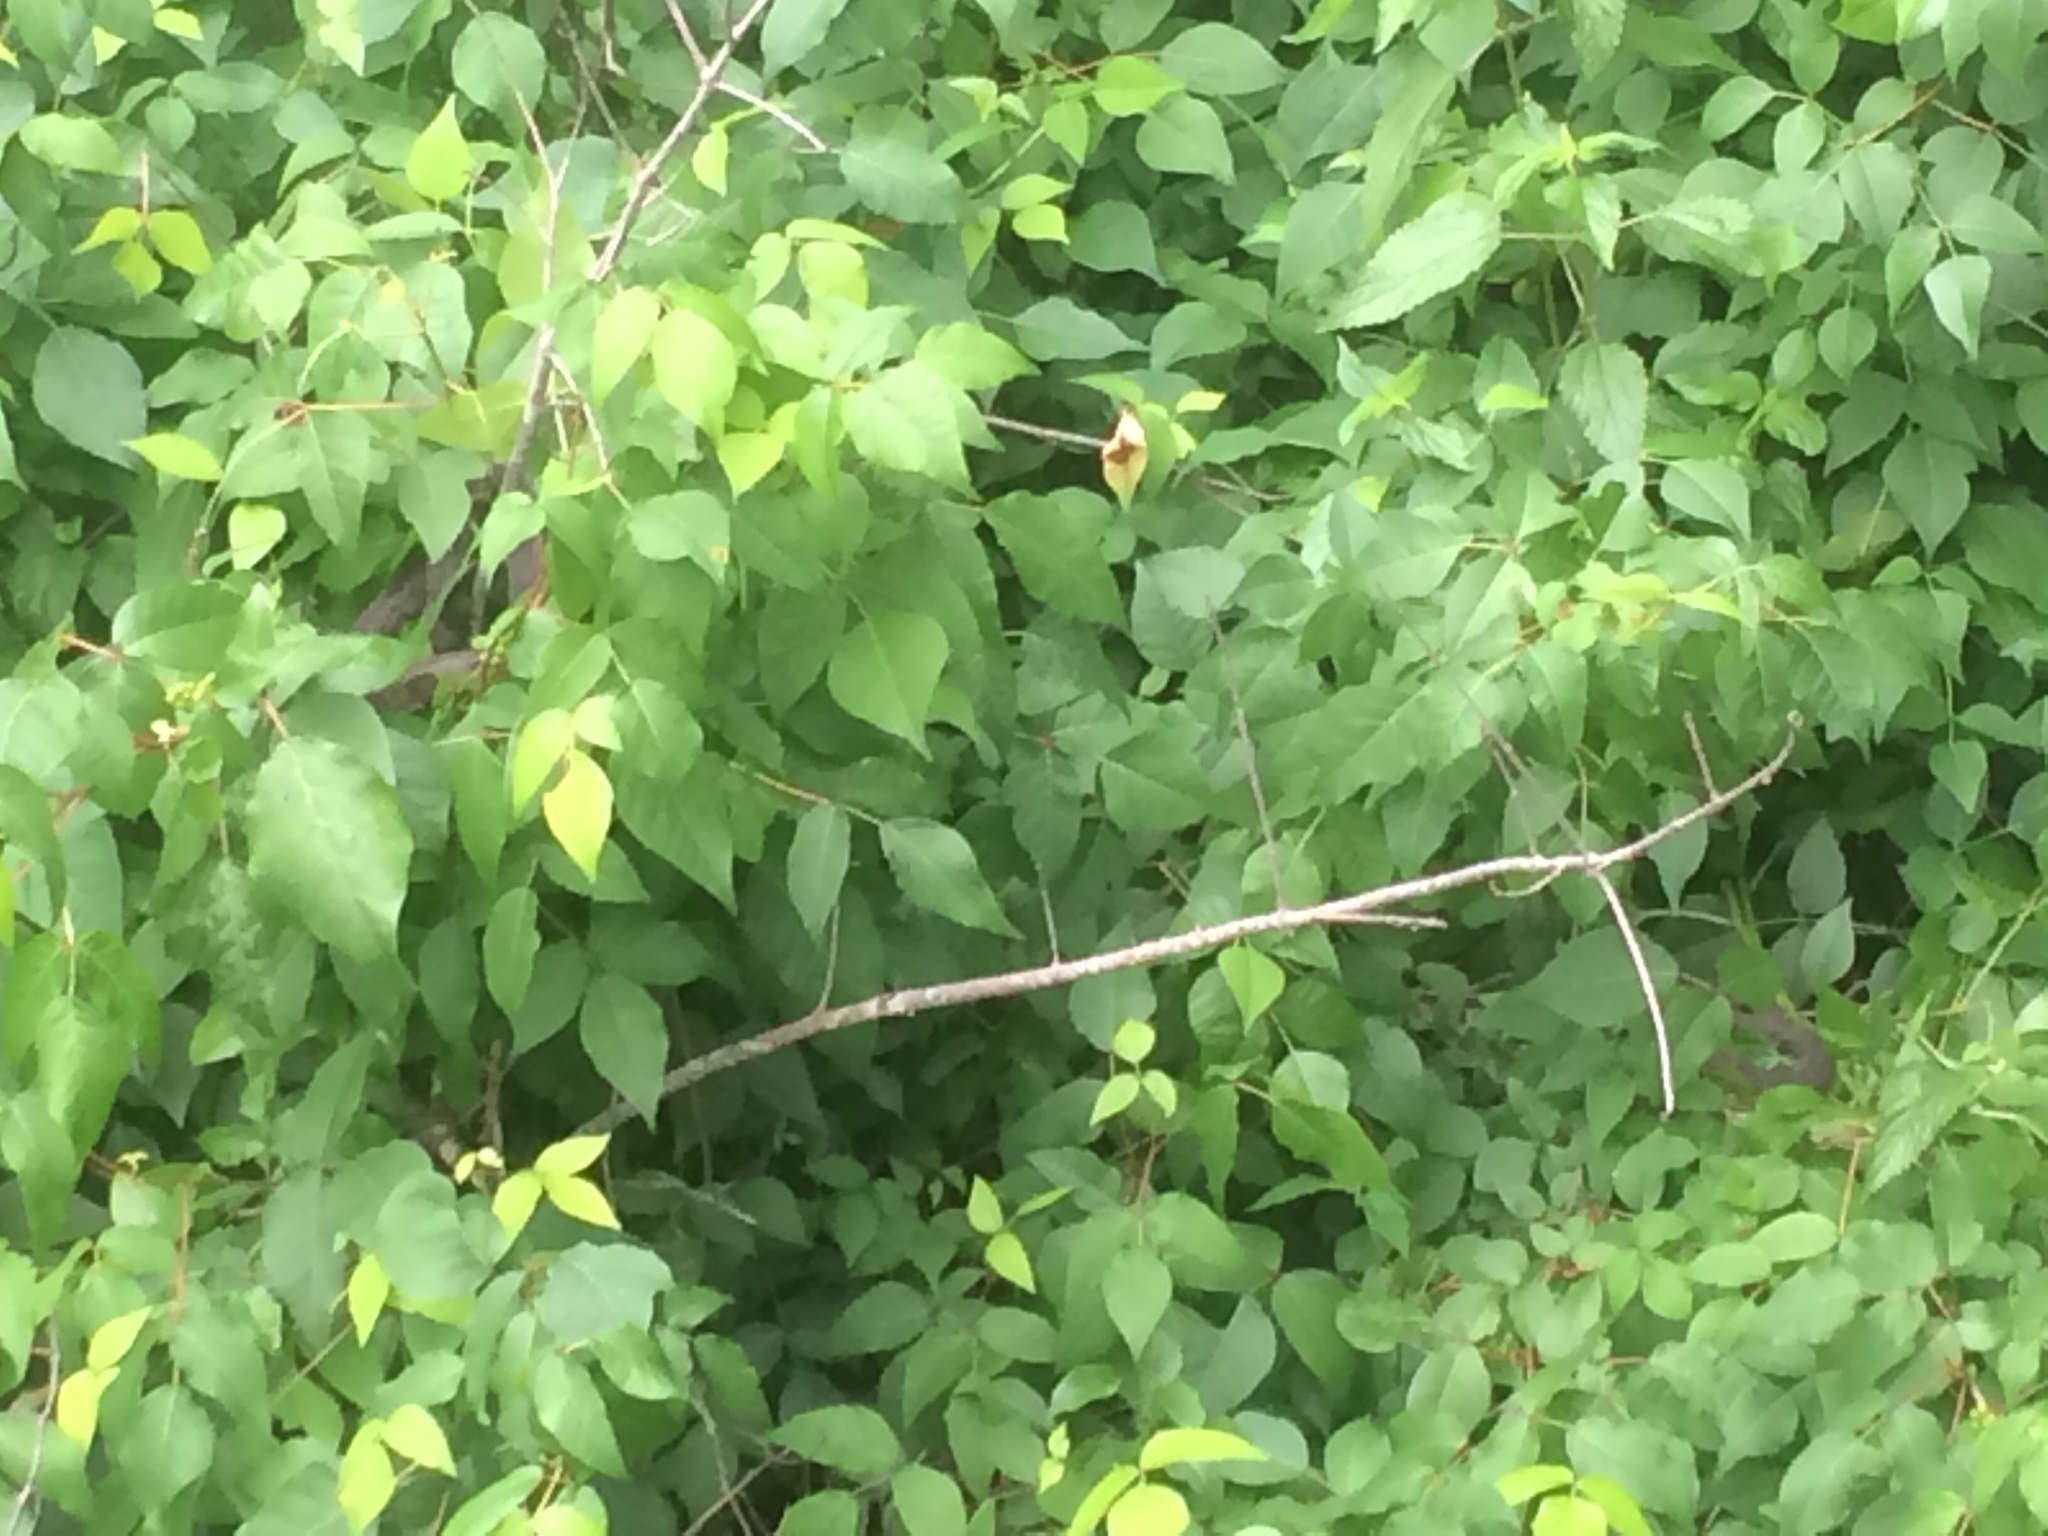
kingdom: Animalia
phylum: Chordata
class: Squamata
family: Colubridae
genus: Nerodia
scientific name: Nerodia taxispilota
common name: Brown water snake
